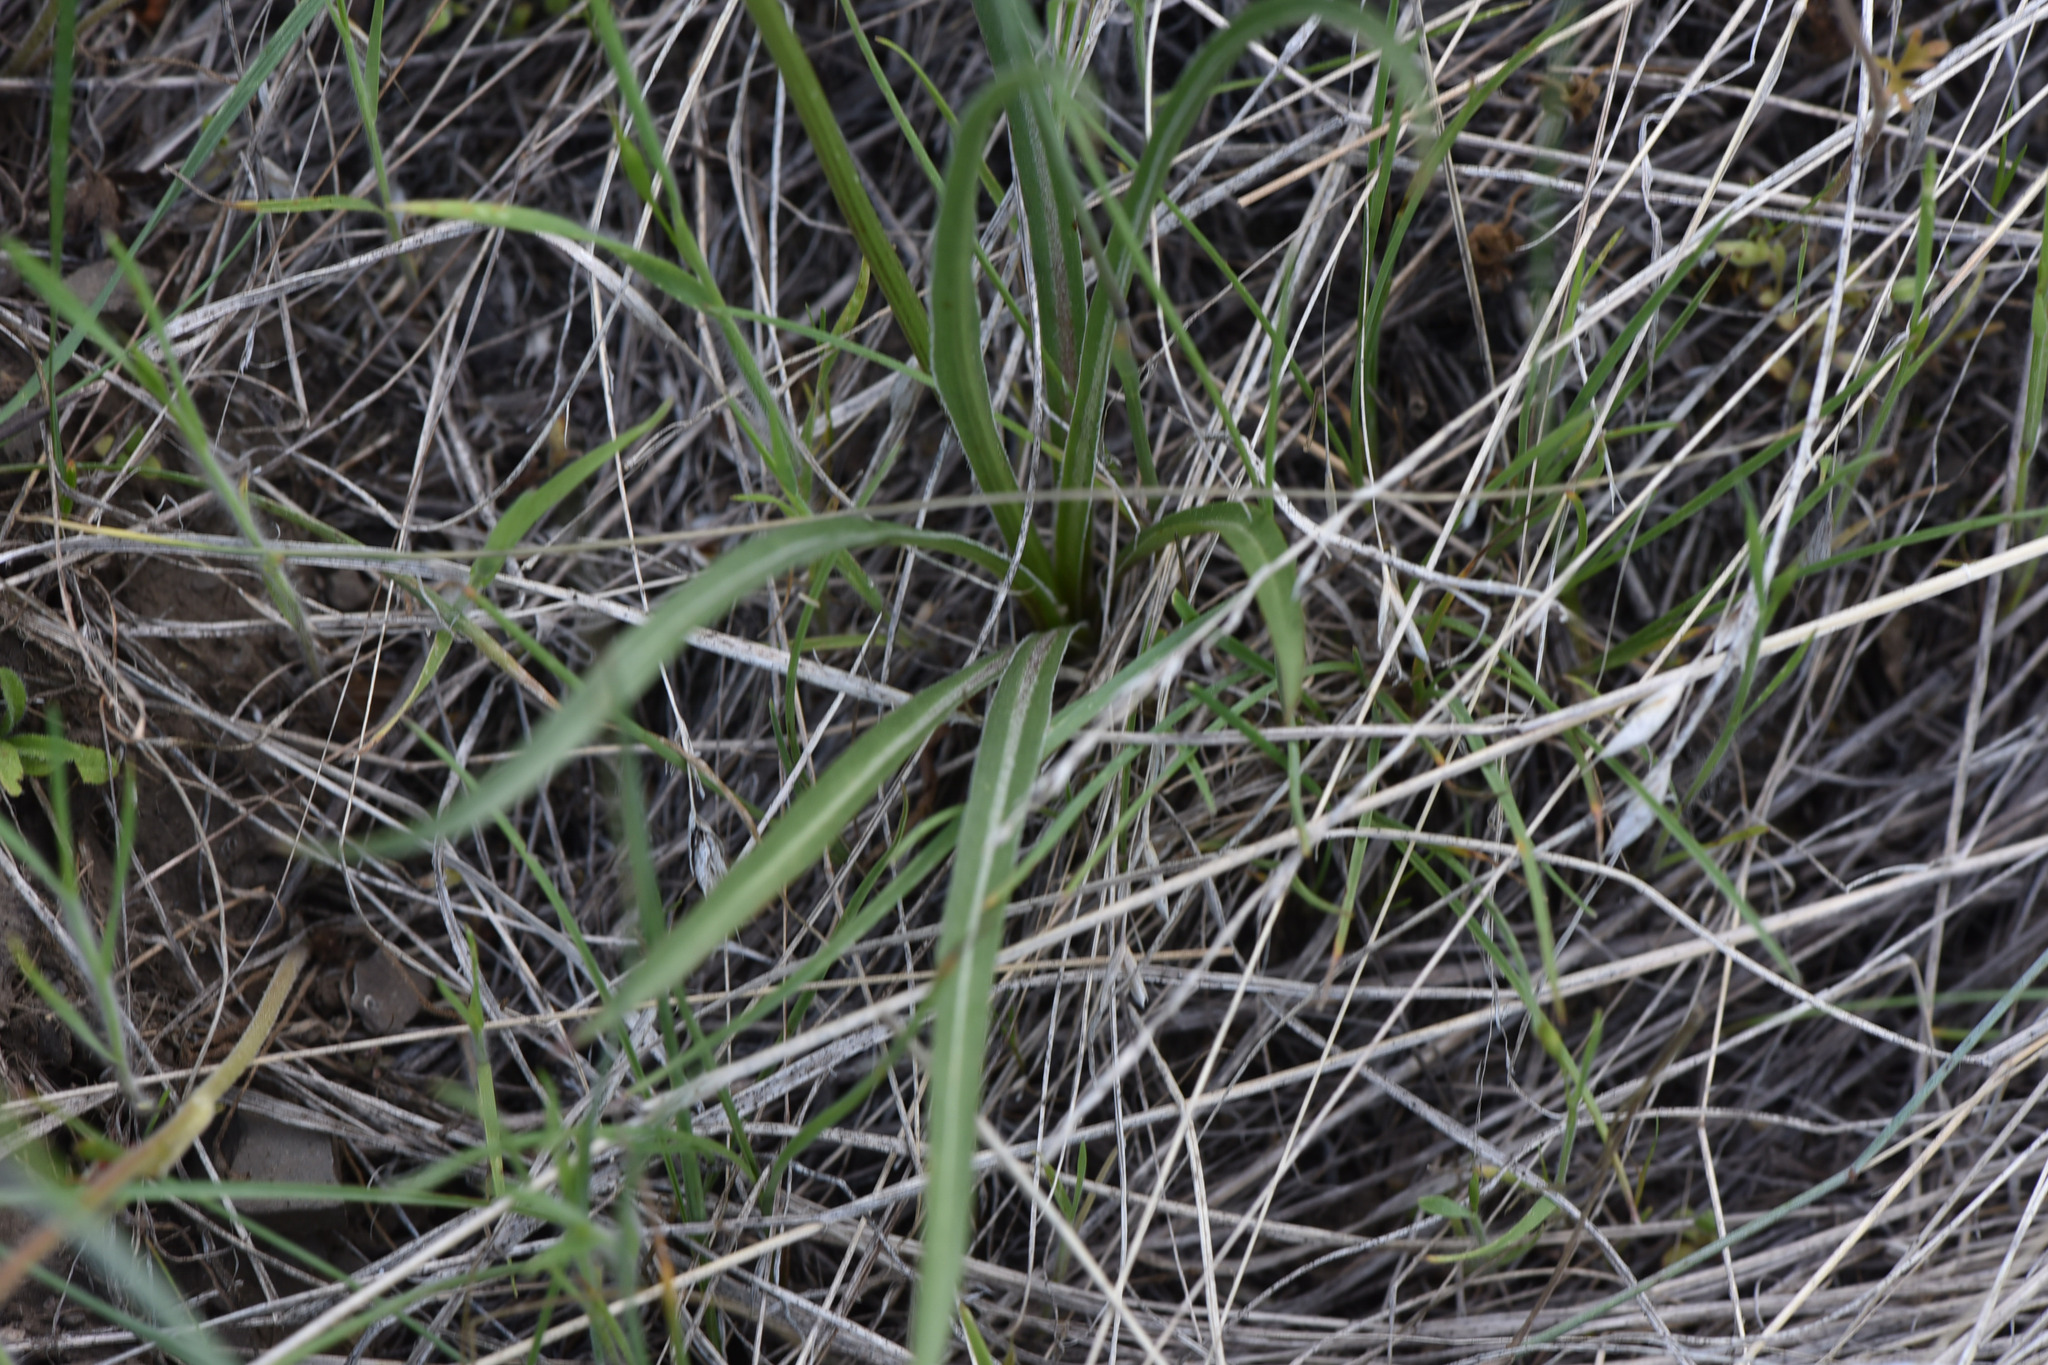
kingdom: Plantae
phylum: Tracheophyta
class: Magnoliopsida
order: Asterales
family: Asteraceae
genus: Microseris
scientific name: Microseris troximoides
